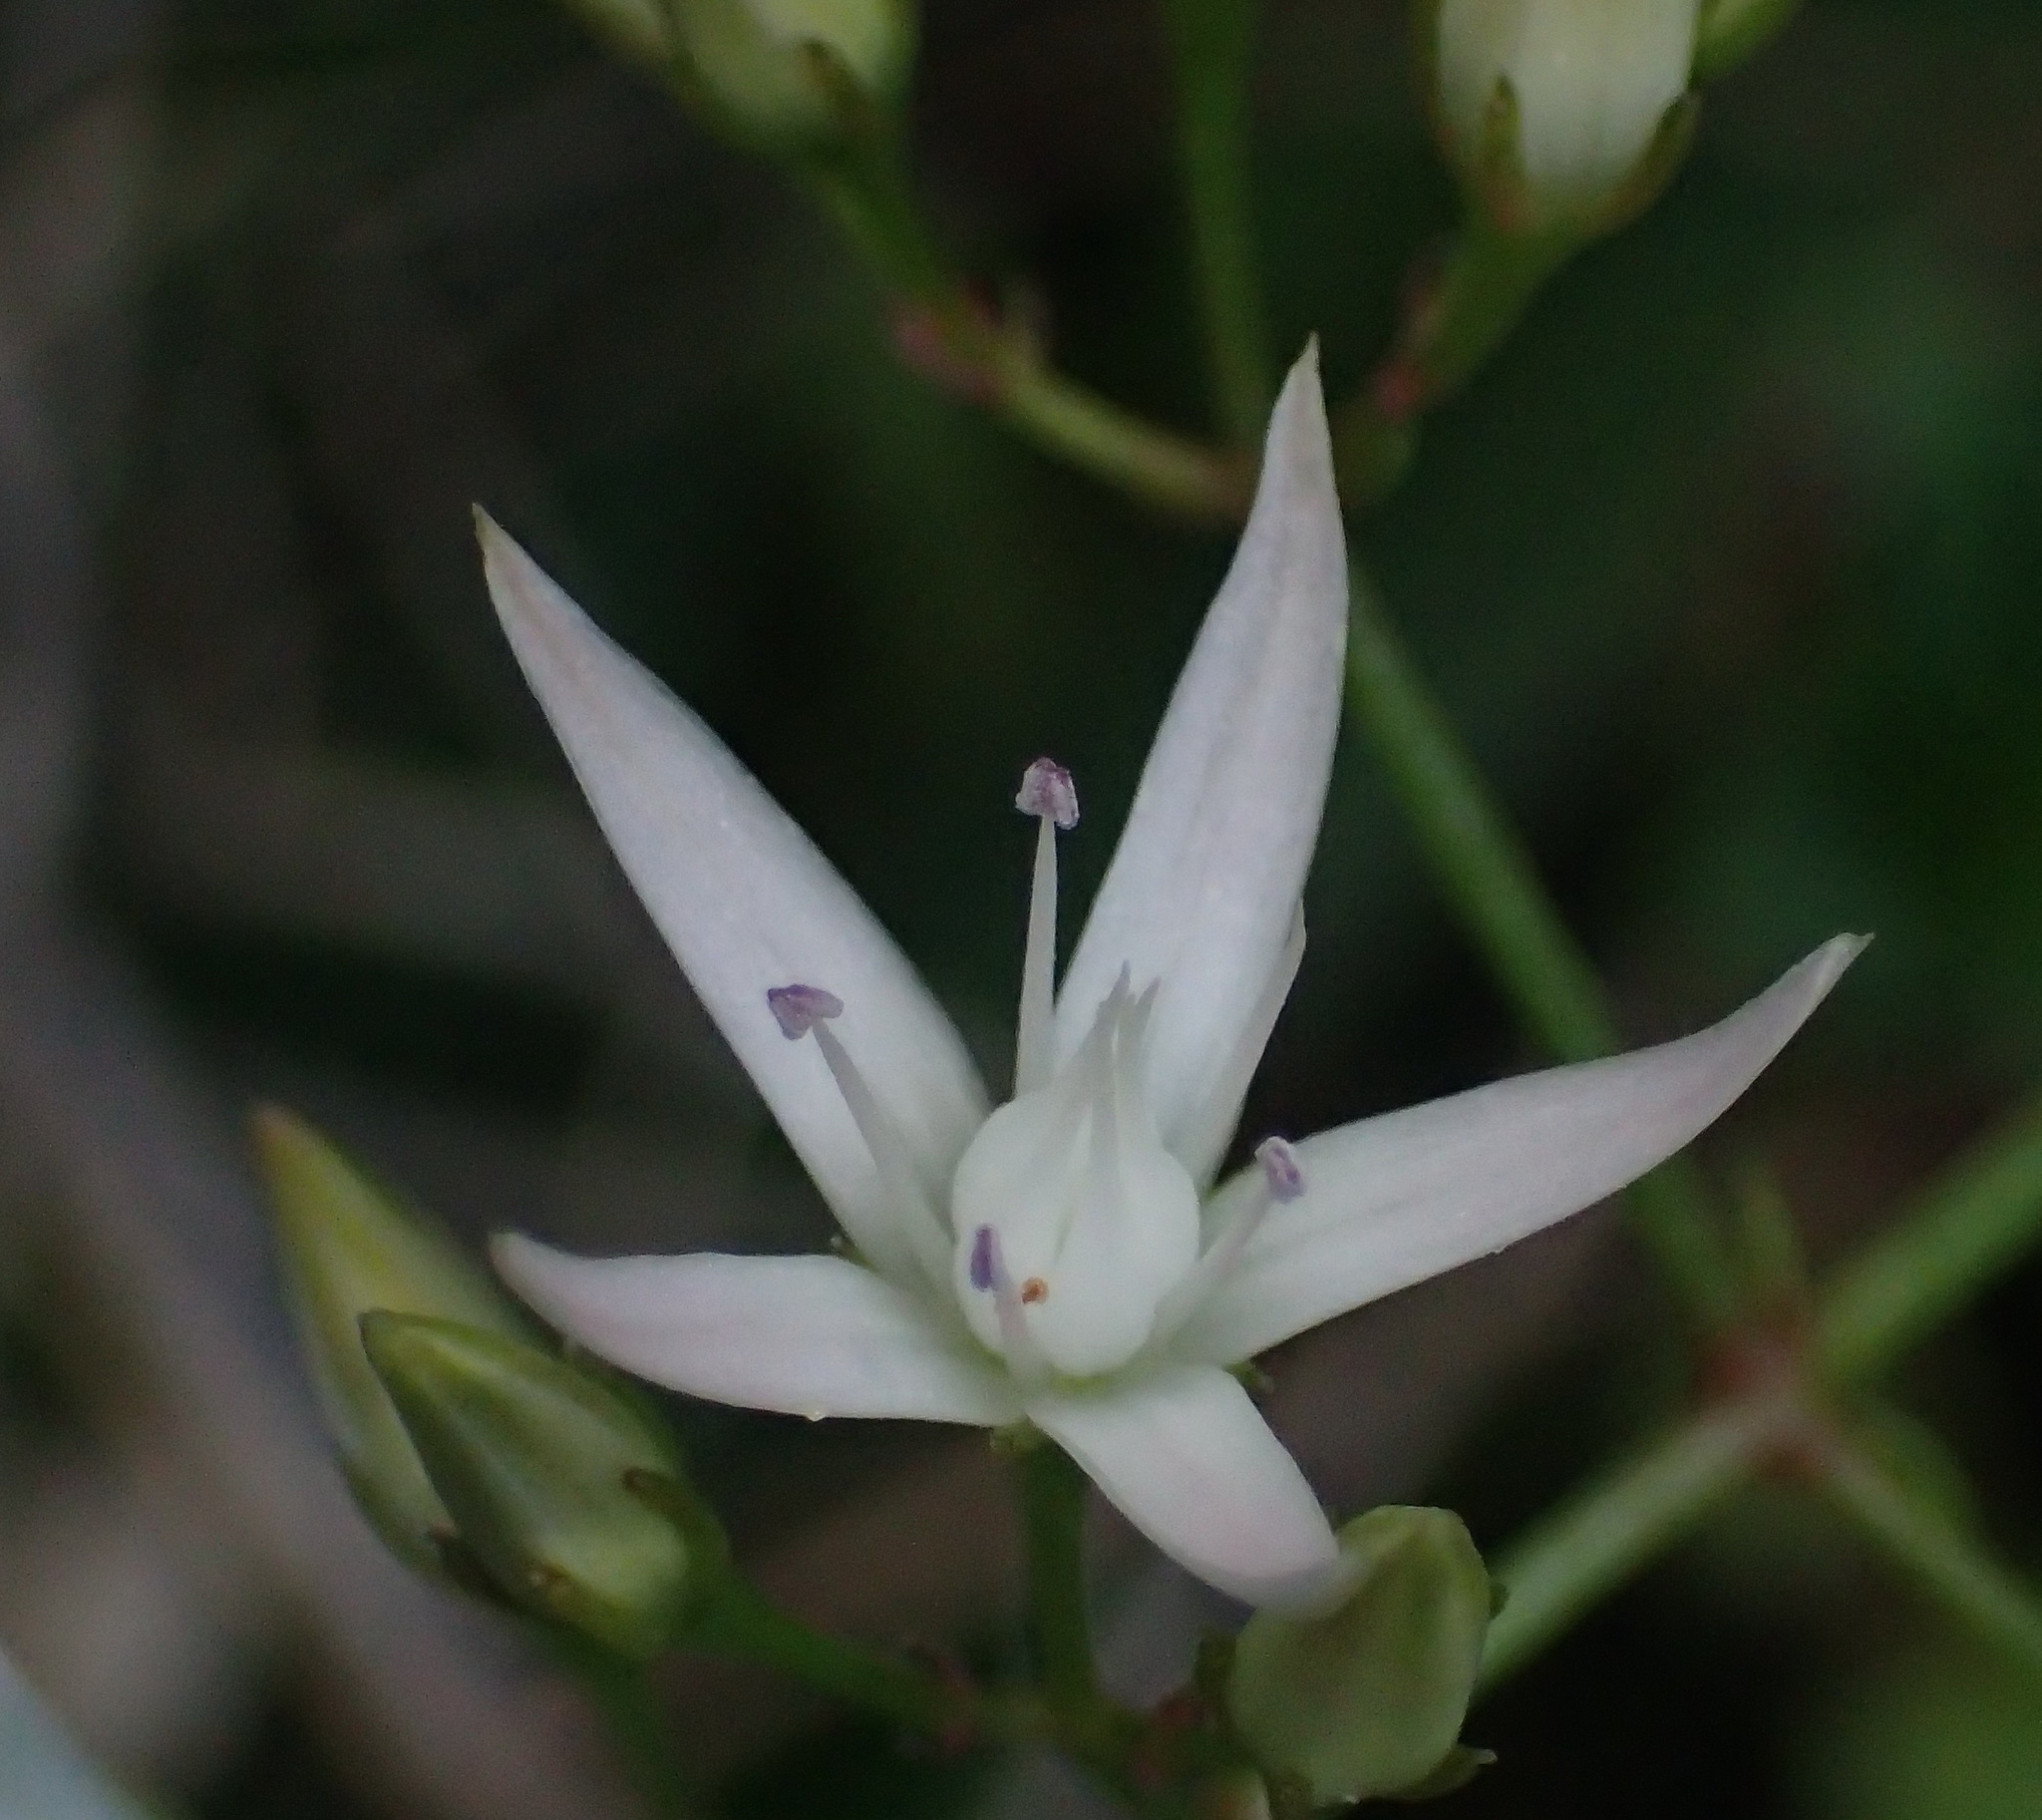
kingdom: Plantae
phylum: Tracheophyta
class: Magnoliopsida
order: Saxifragales
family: Crassulaceae
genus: Crassula
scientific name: Crassula sarmentosa
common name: Jade-tree
